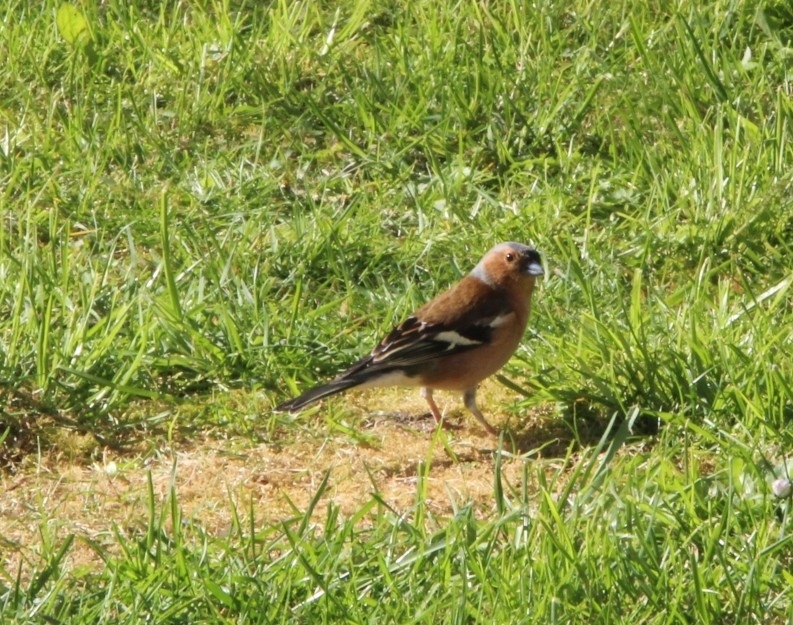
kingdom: Animalia
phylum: Chordata
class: Aves
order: Passeriformes
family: Fringillidae
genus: Fringilla
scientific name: Fringilla coelebs
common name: Common chaffinch
